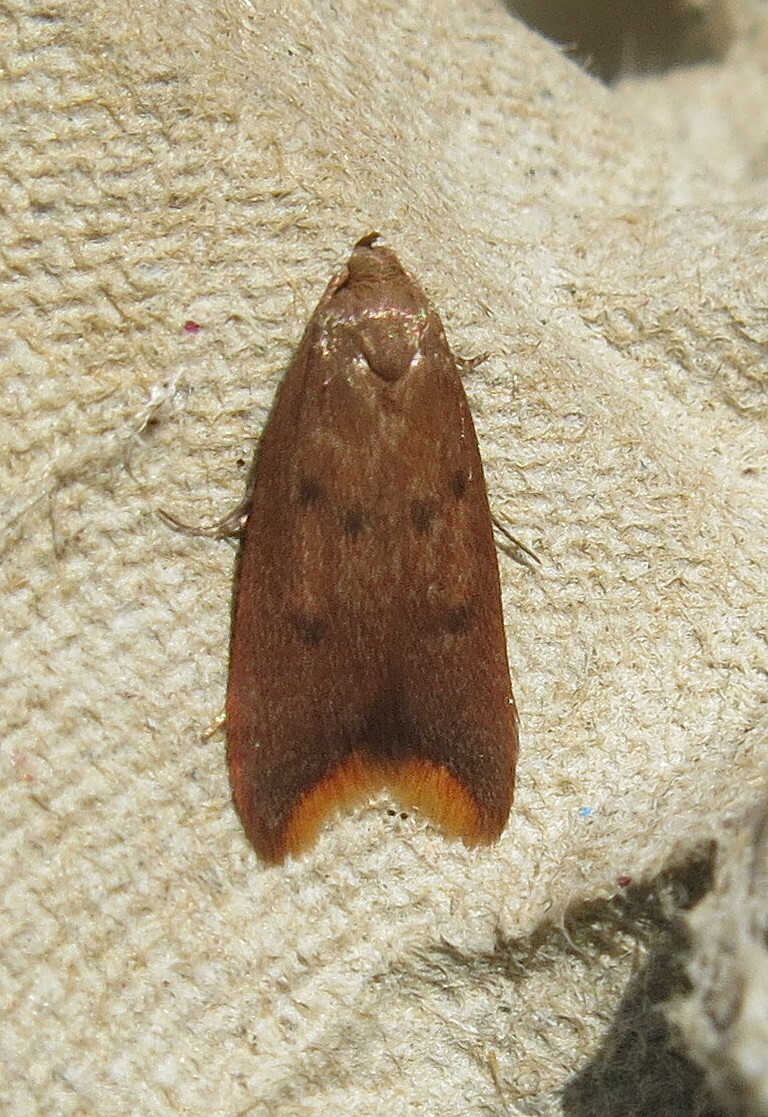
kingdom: Animalia
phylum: Arthropoda
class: Insecta
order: Lepidoptera
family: Oecophoridae
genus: Tachystola
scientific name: Tachystola acroxantha
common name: Ruddy streak
